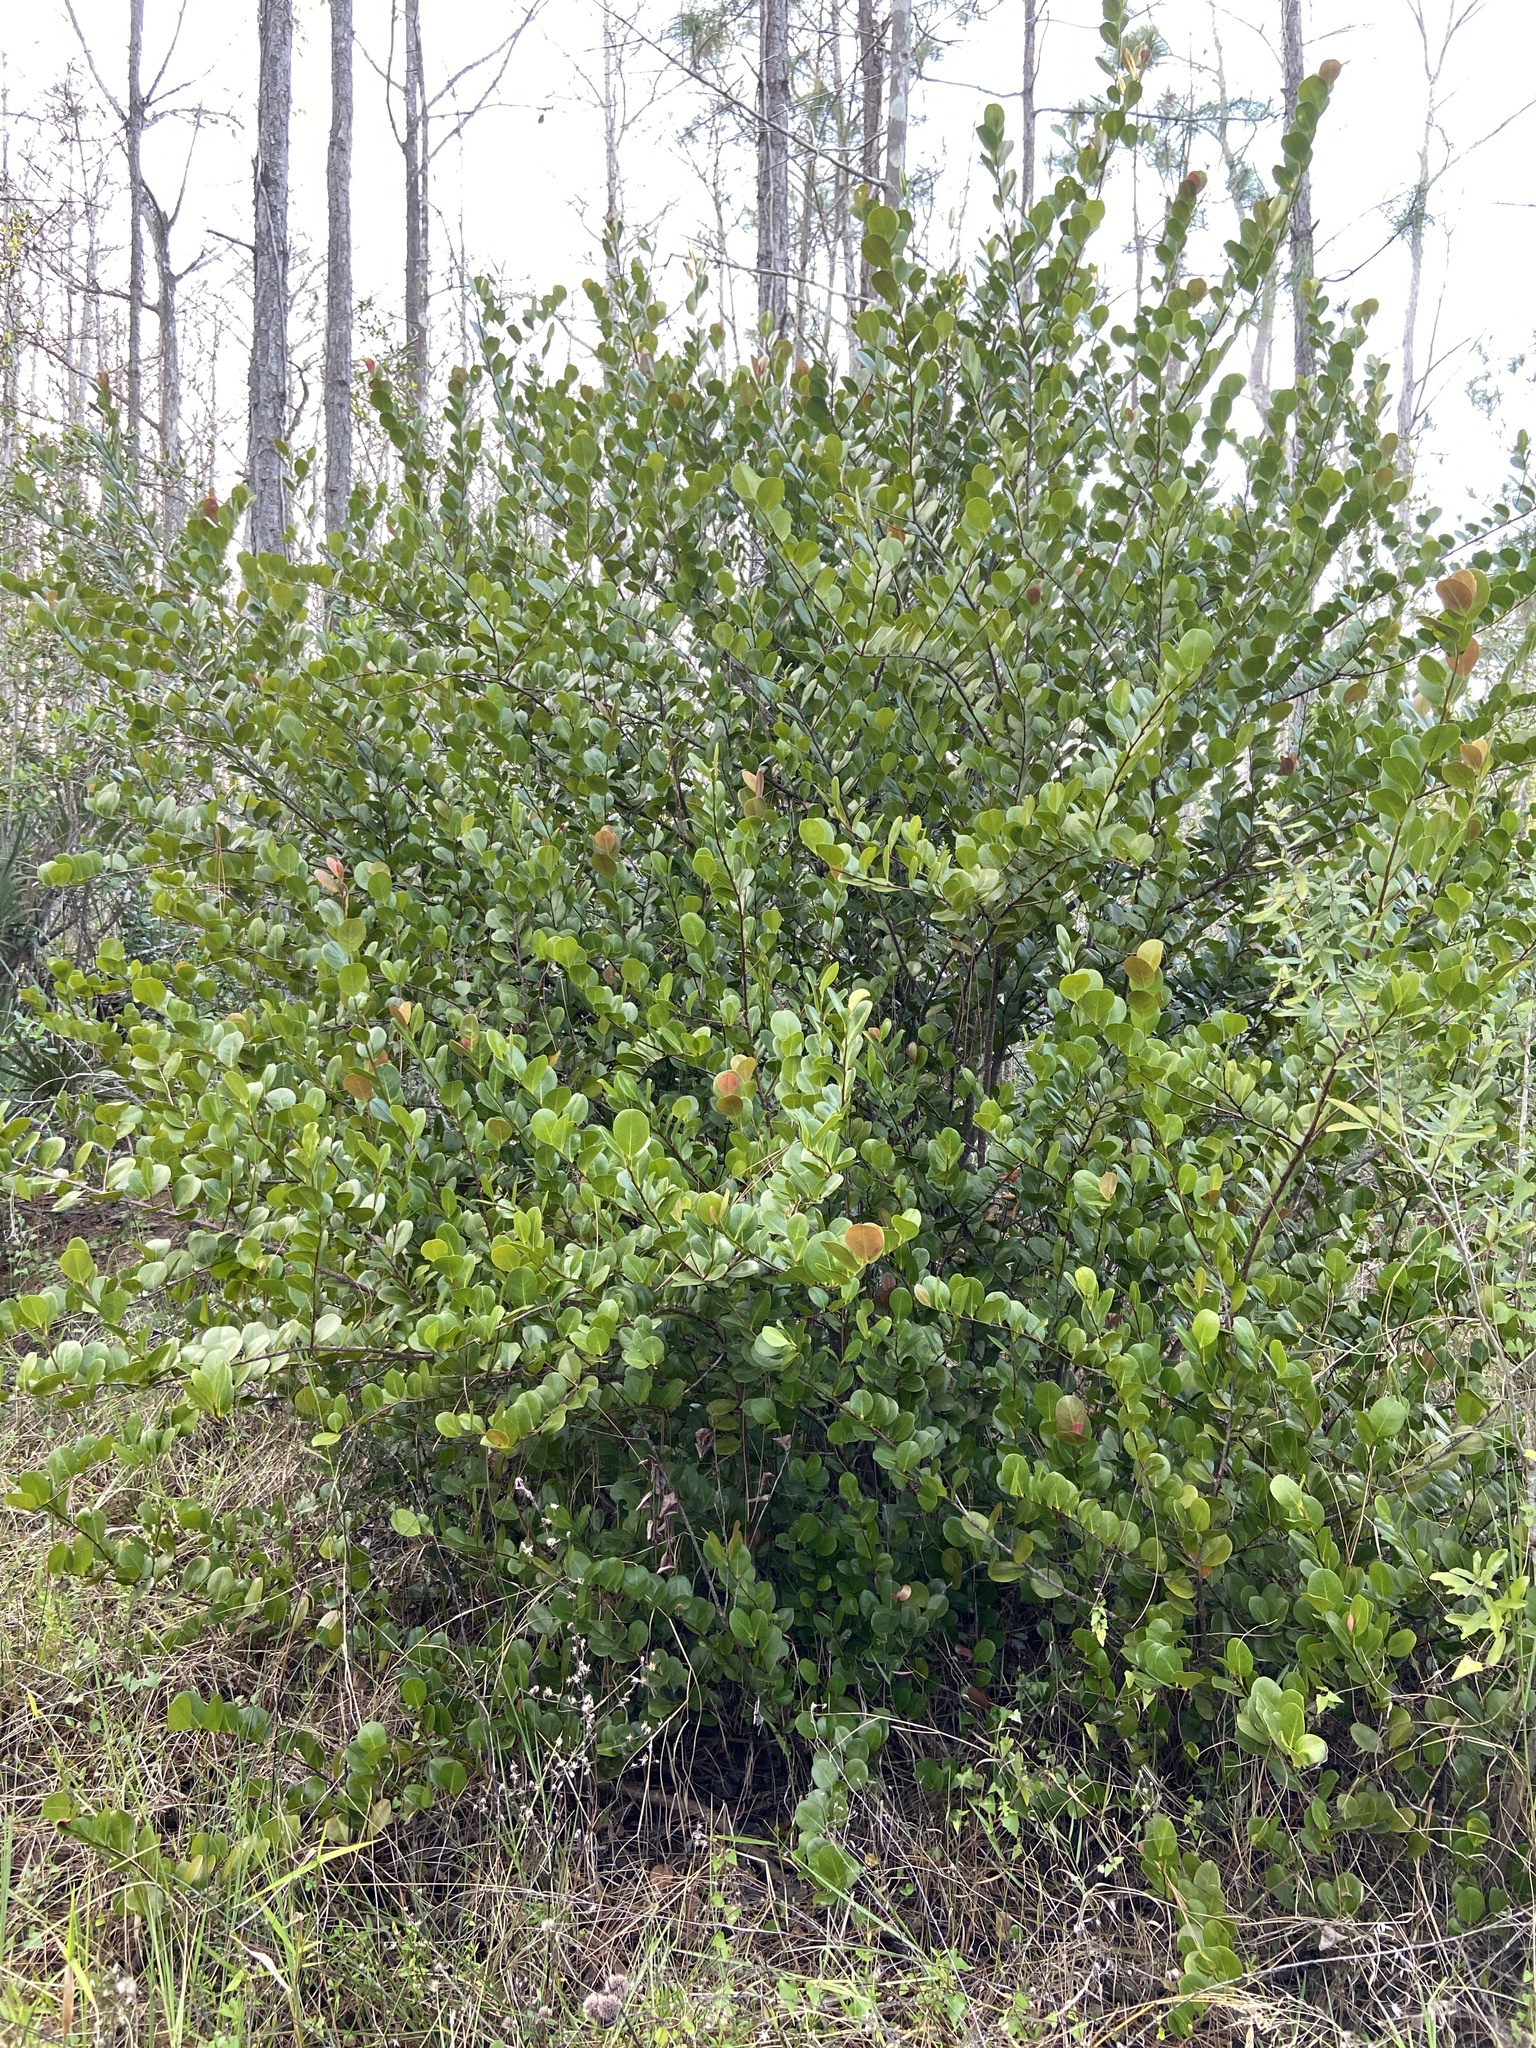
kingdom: Plantae
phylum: Tracheophyta
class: Magnoliopsida
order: Malpighiales
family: Chrysobalanaceae
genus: Chrysobalanus
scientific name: Chrysobalanus icaco
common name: Coco plum
